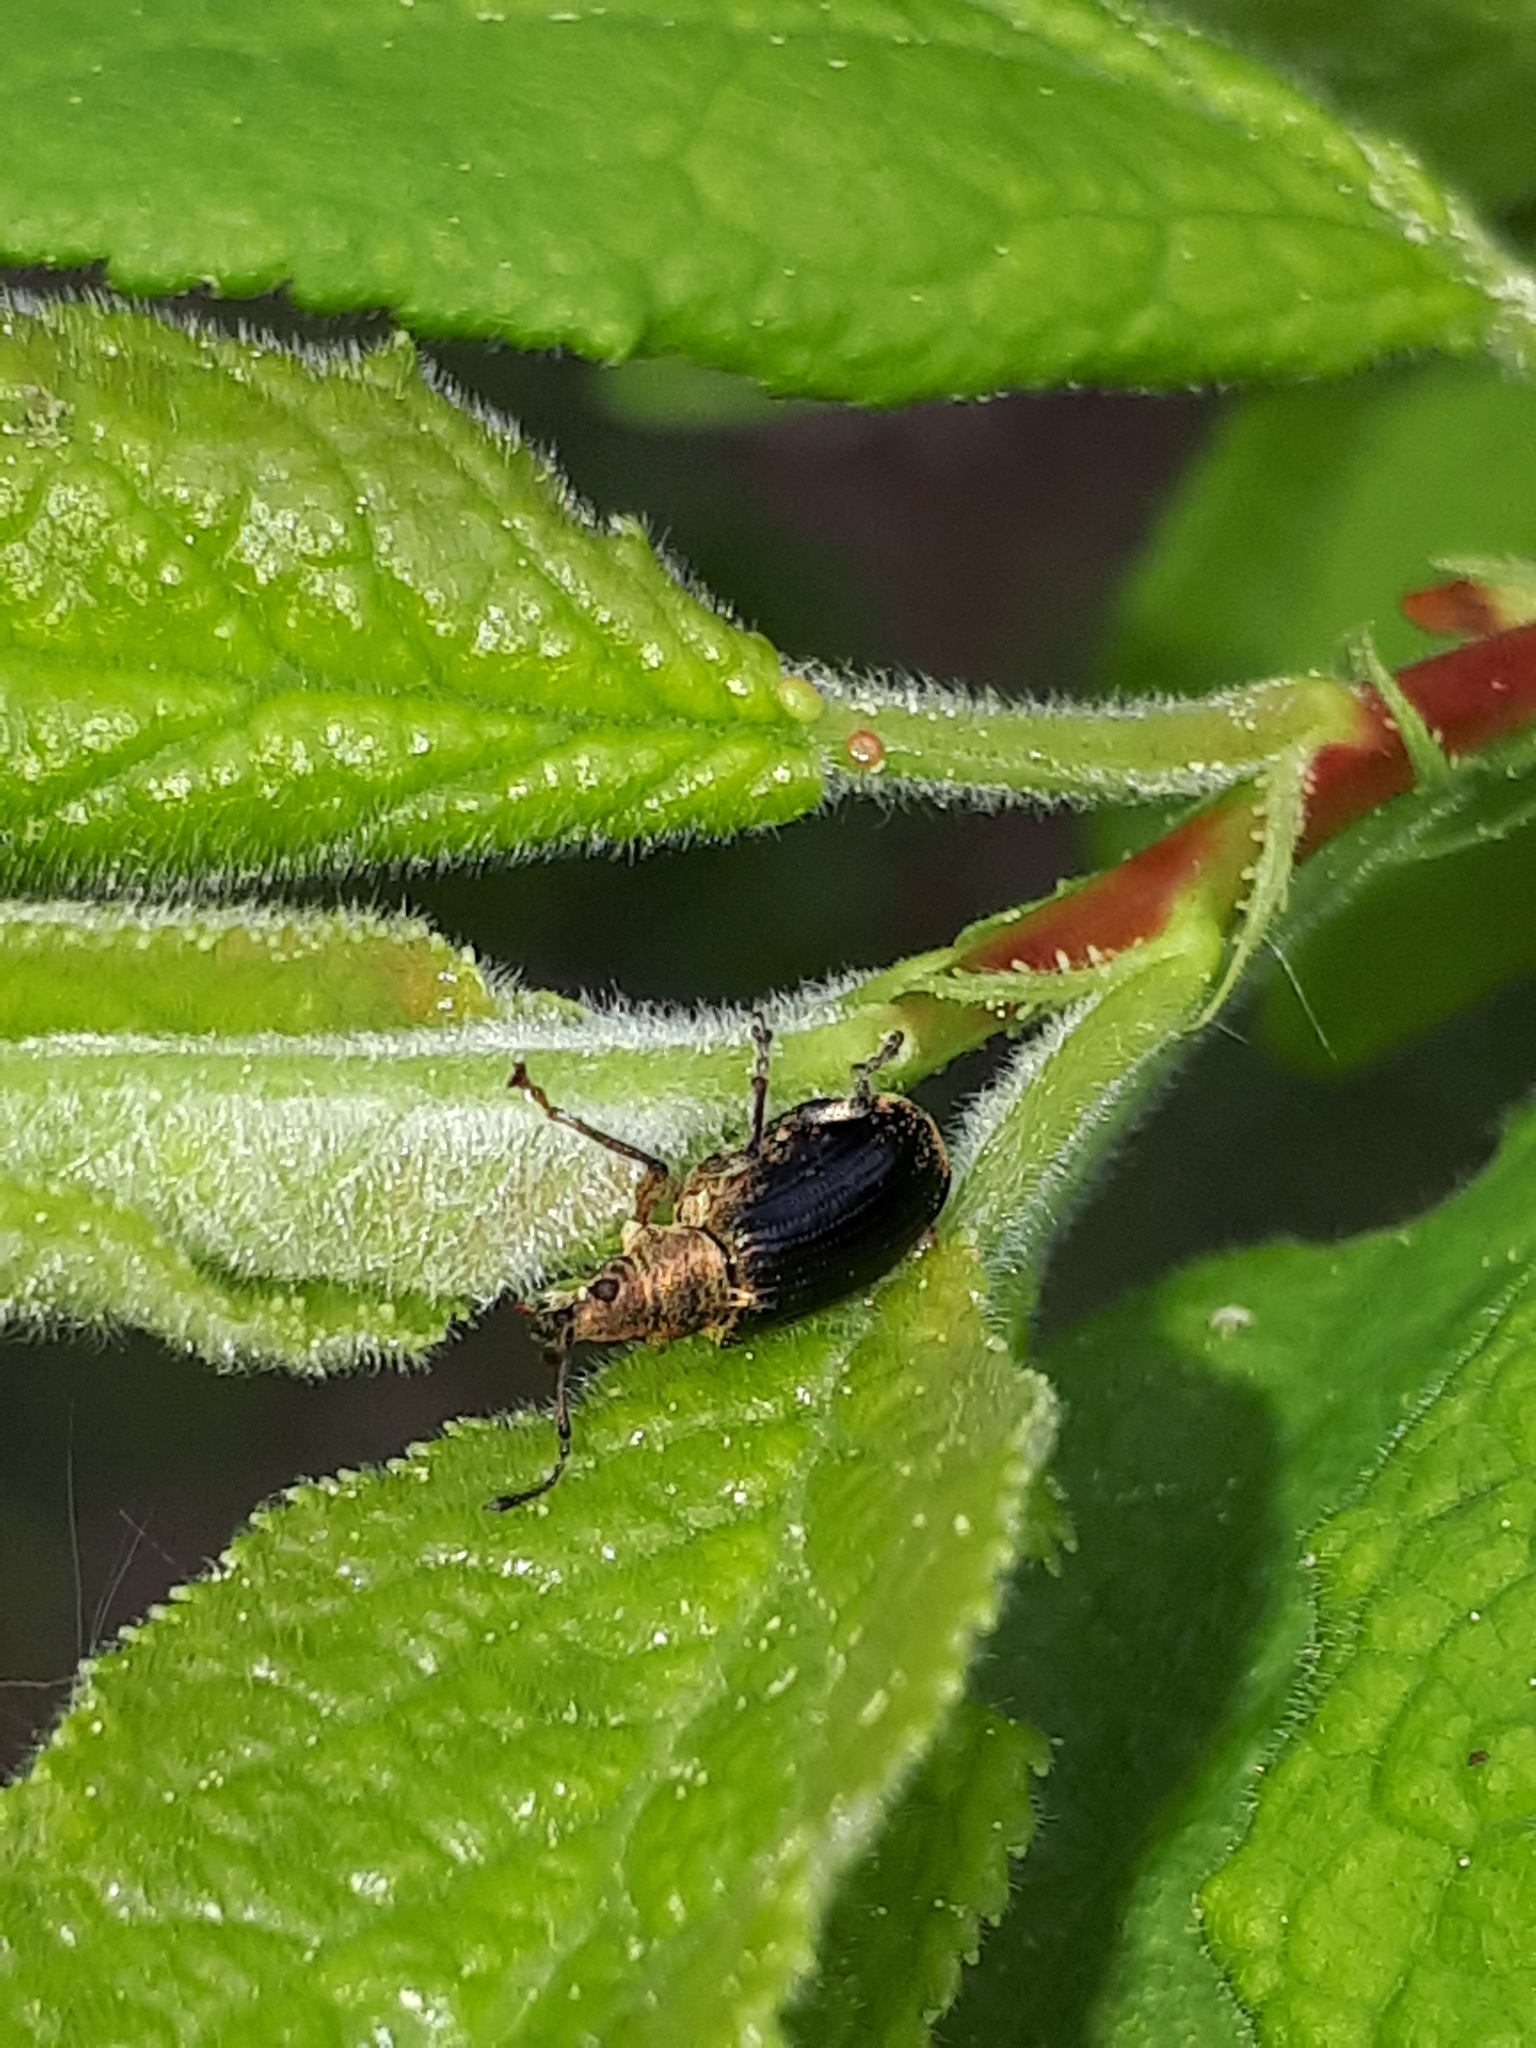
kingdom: Animalia
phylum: Arthropoda
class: Insecta
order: Coleoptera
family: Curculionidae
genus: Phyllobius
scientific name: Phyllobius pyri
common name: Common leaf weevil
